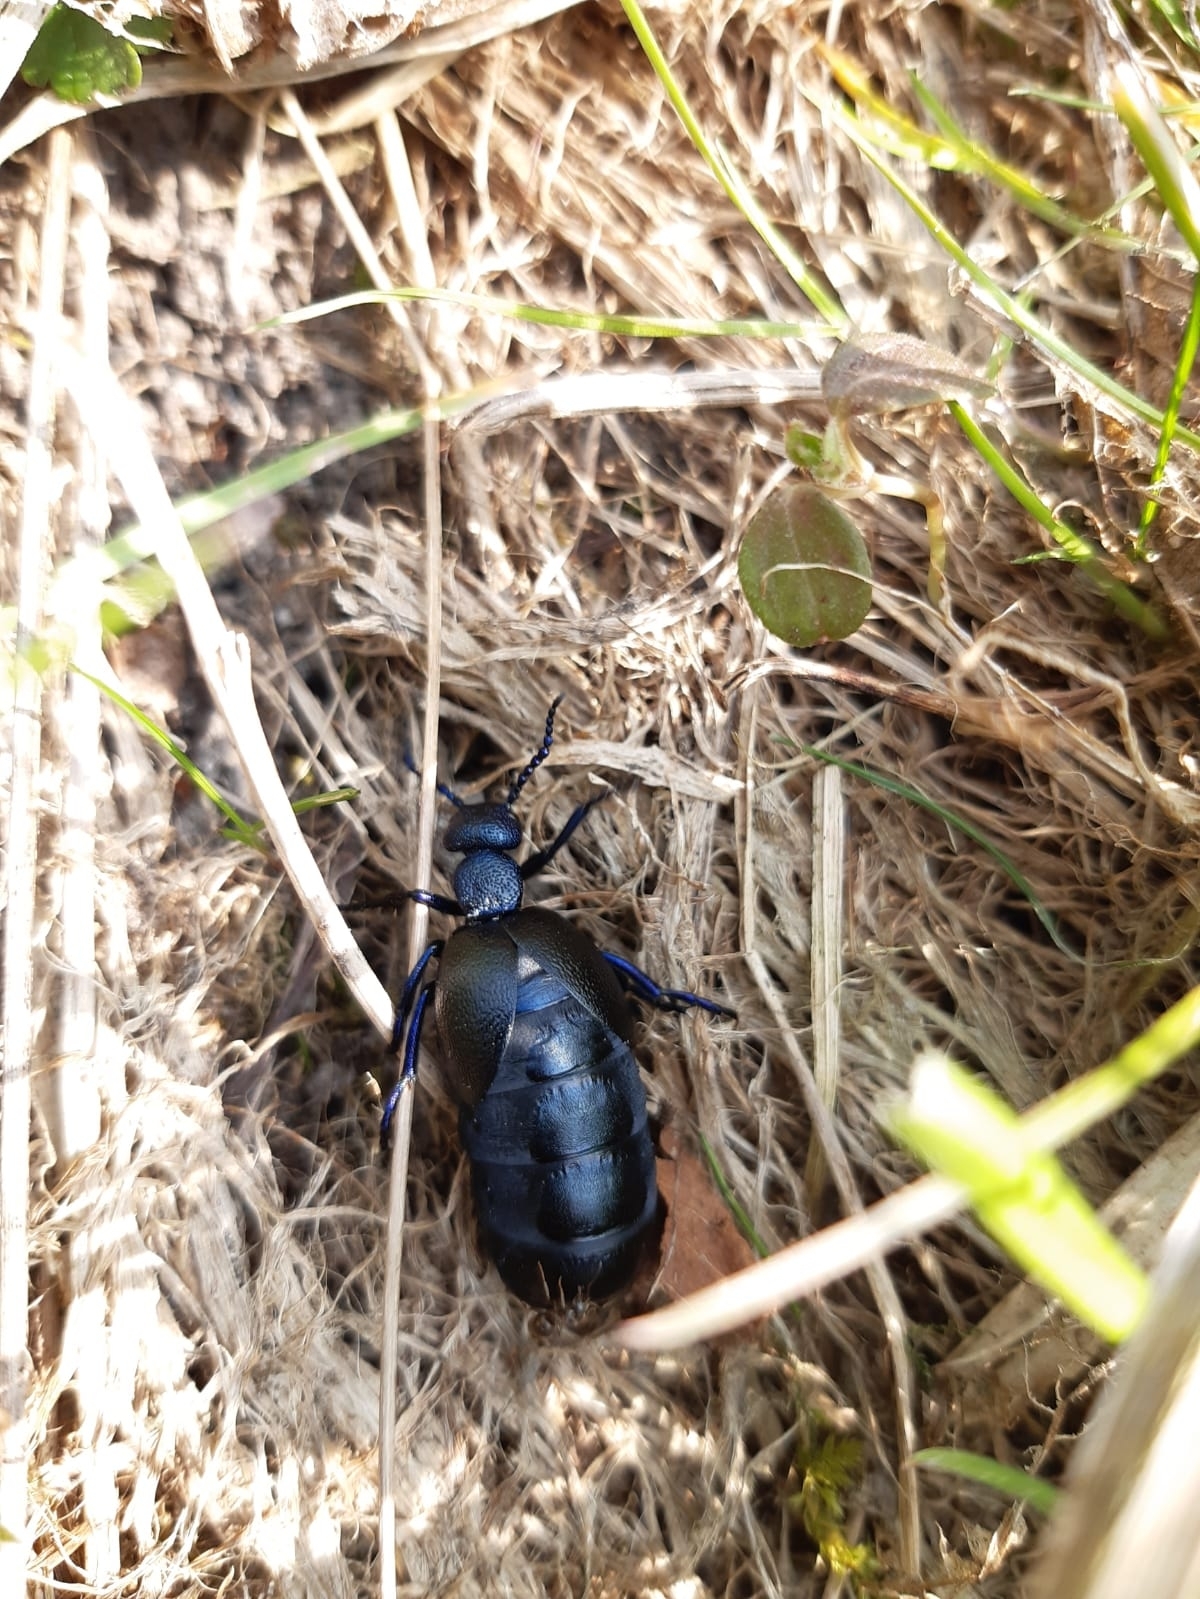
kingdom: Animalia
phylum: Arthropoda
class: Insecta
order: Coleoptera
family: Meloidae
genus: Meloe
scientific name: Meloe proscarabaeus
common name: Black oil-beetle
